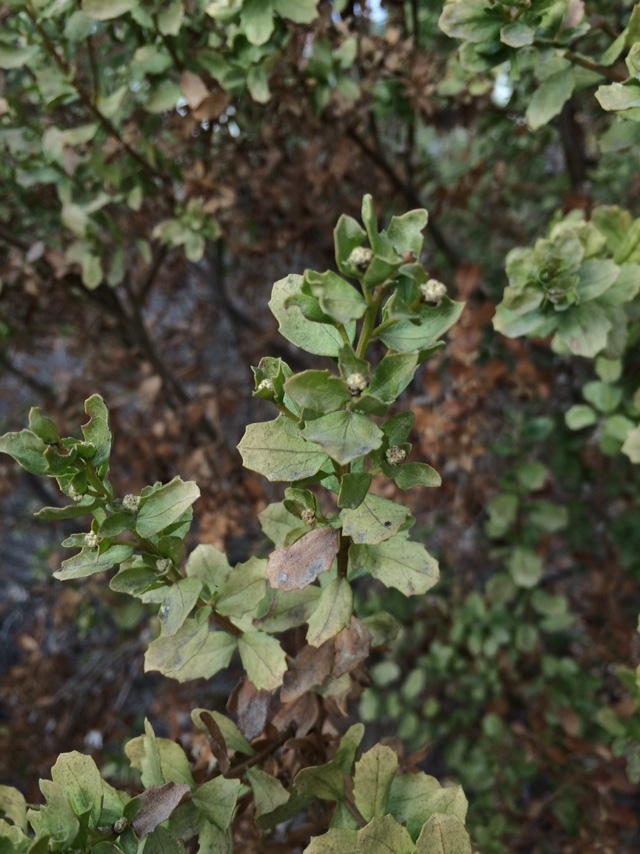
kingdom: Plantae
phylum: Tracheophyta
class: Magnoliopsida
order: Asterales
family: Asteraceae
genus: Baccharis
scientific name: Baccharis pilularis
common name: Coyotebrush
